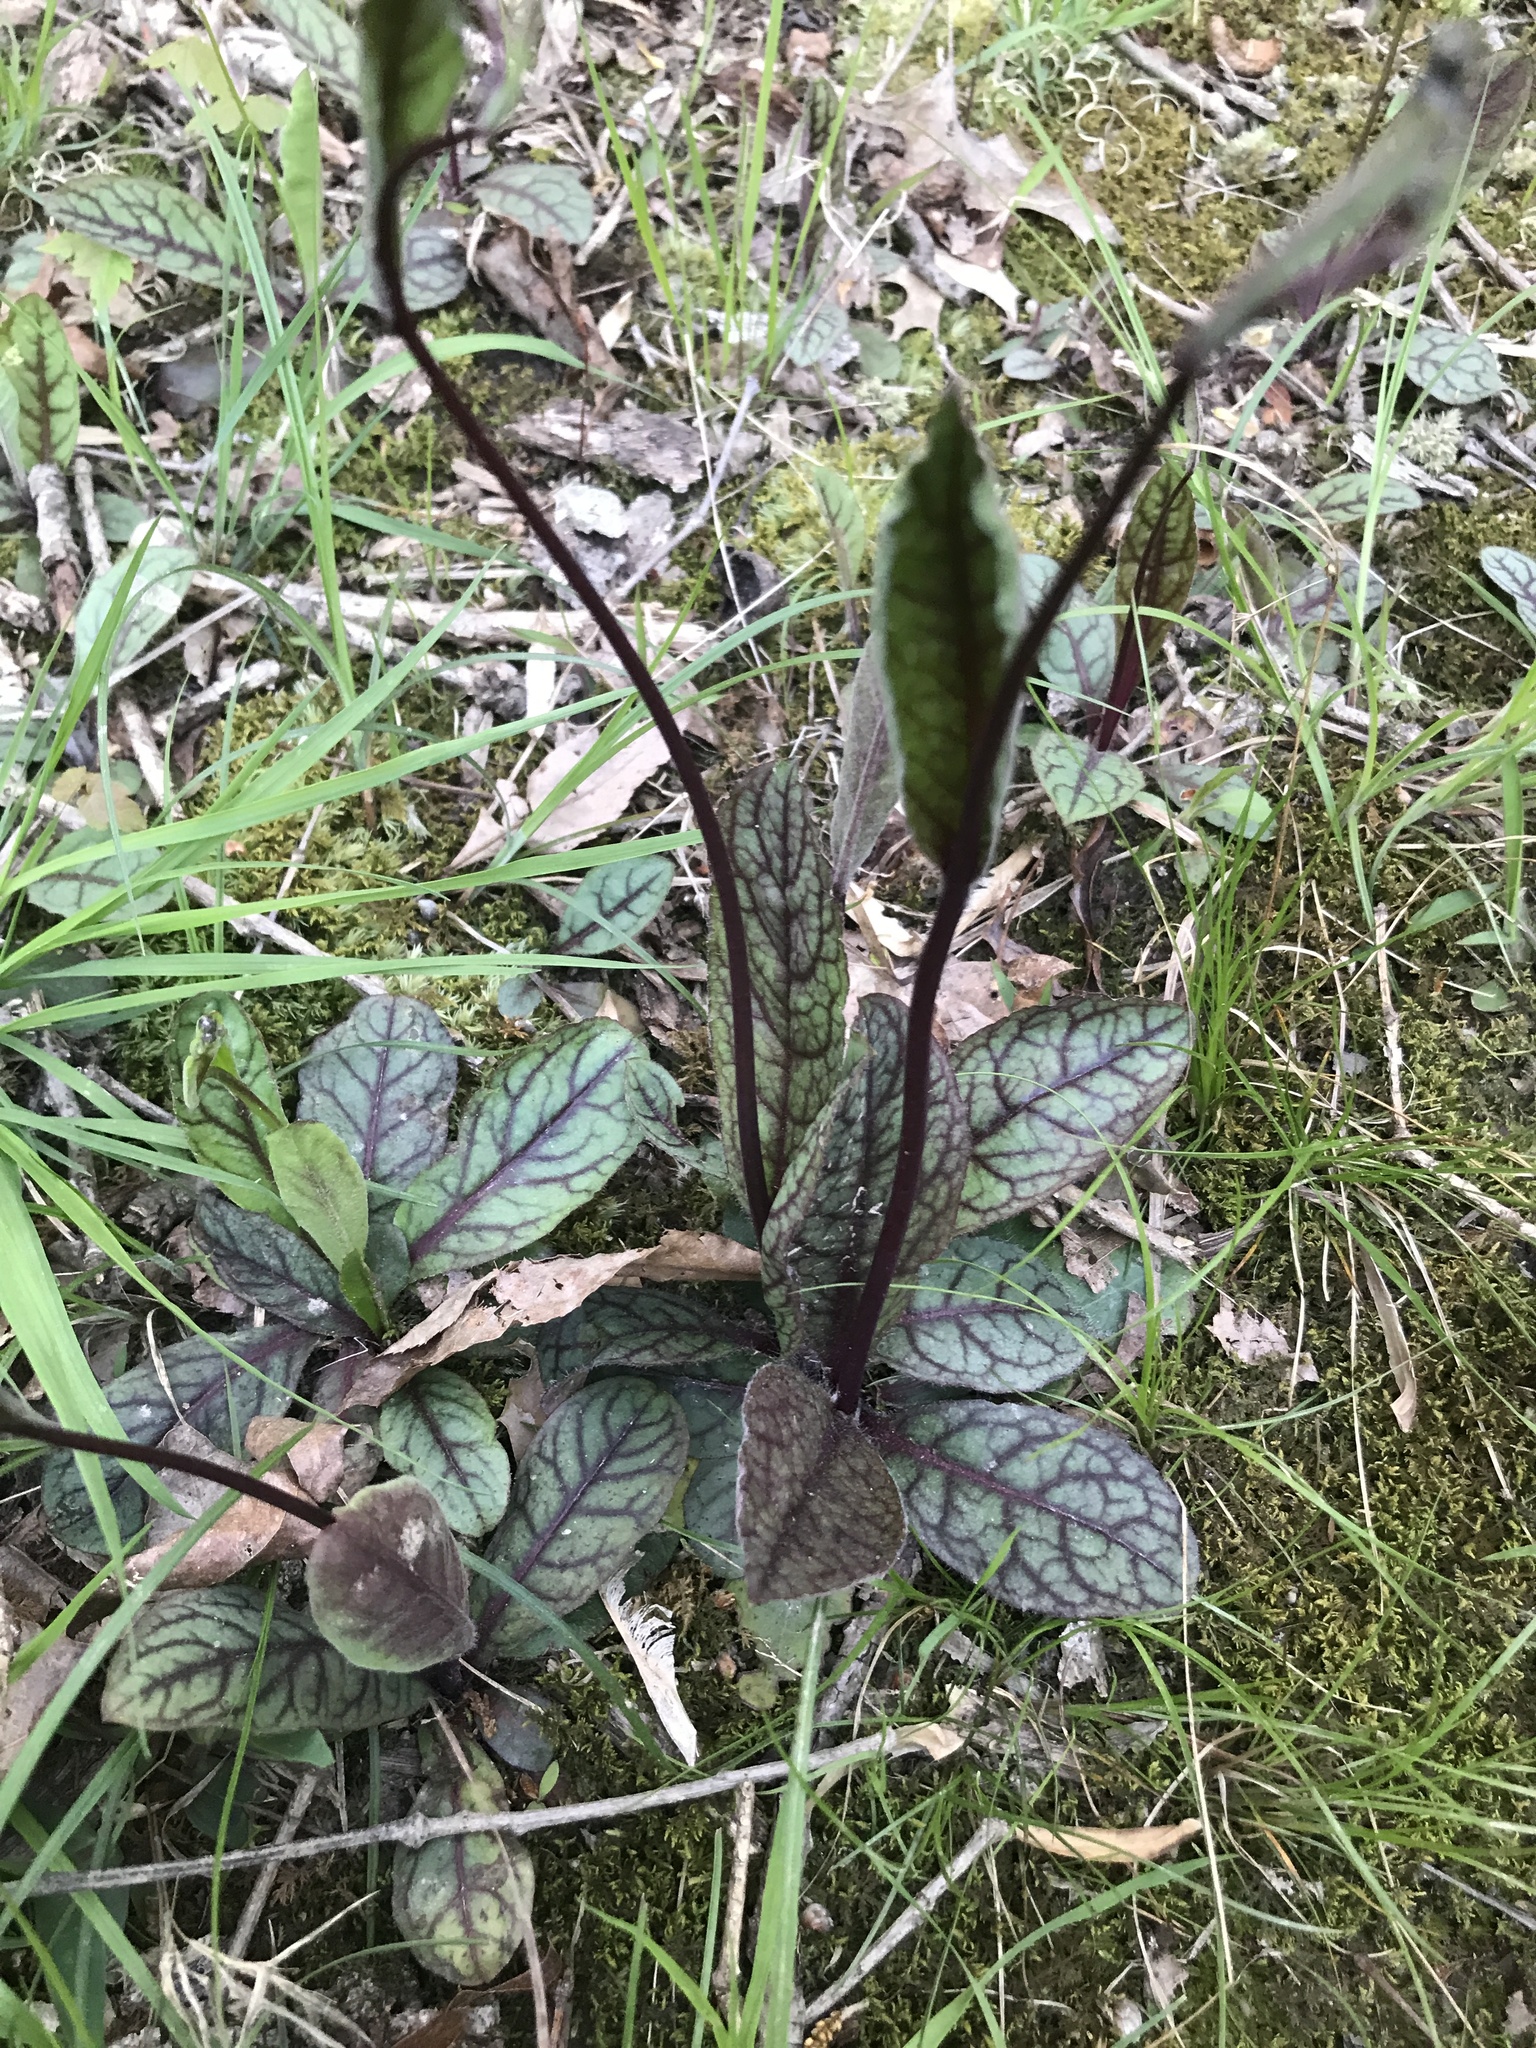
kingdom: Plantae
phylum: Tracheophyta
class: Magnoliopsida
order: Asterales
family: Asteraceae
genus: Hieracium
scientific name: Hieracium venosum
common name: Rattlesnake hawkweed
